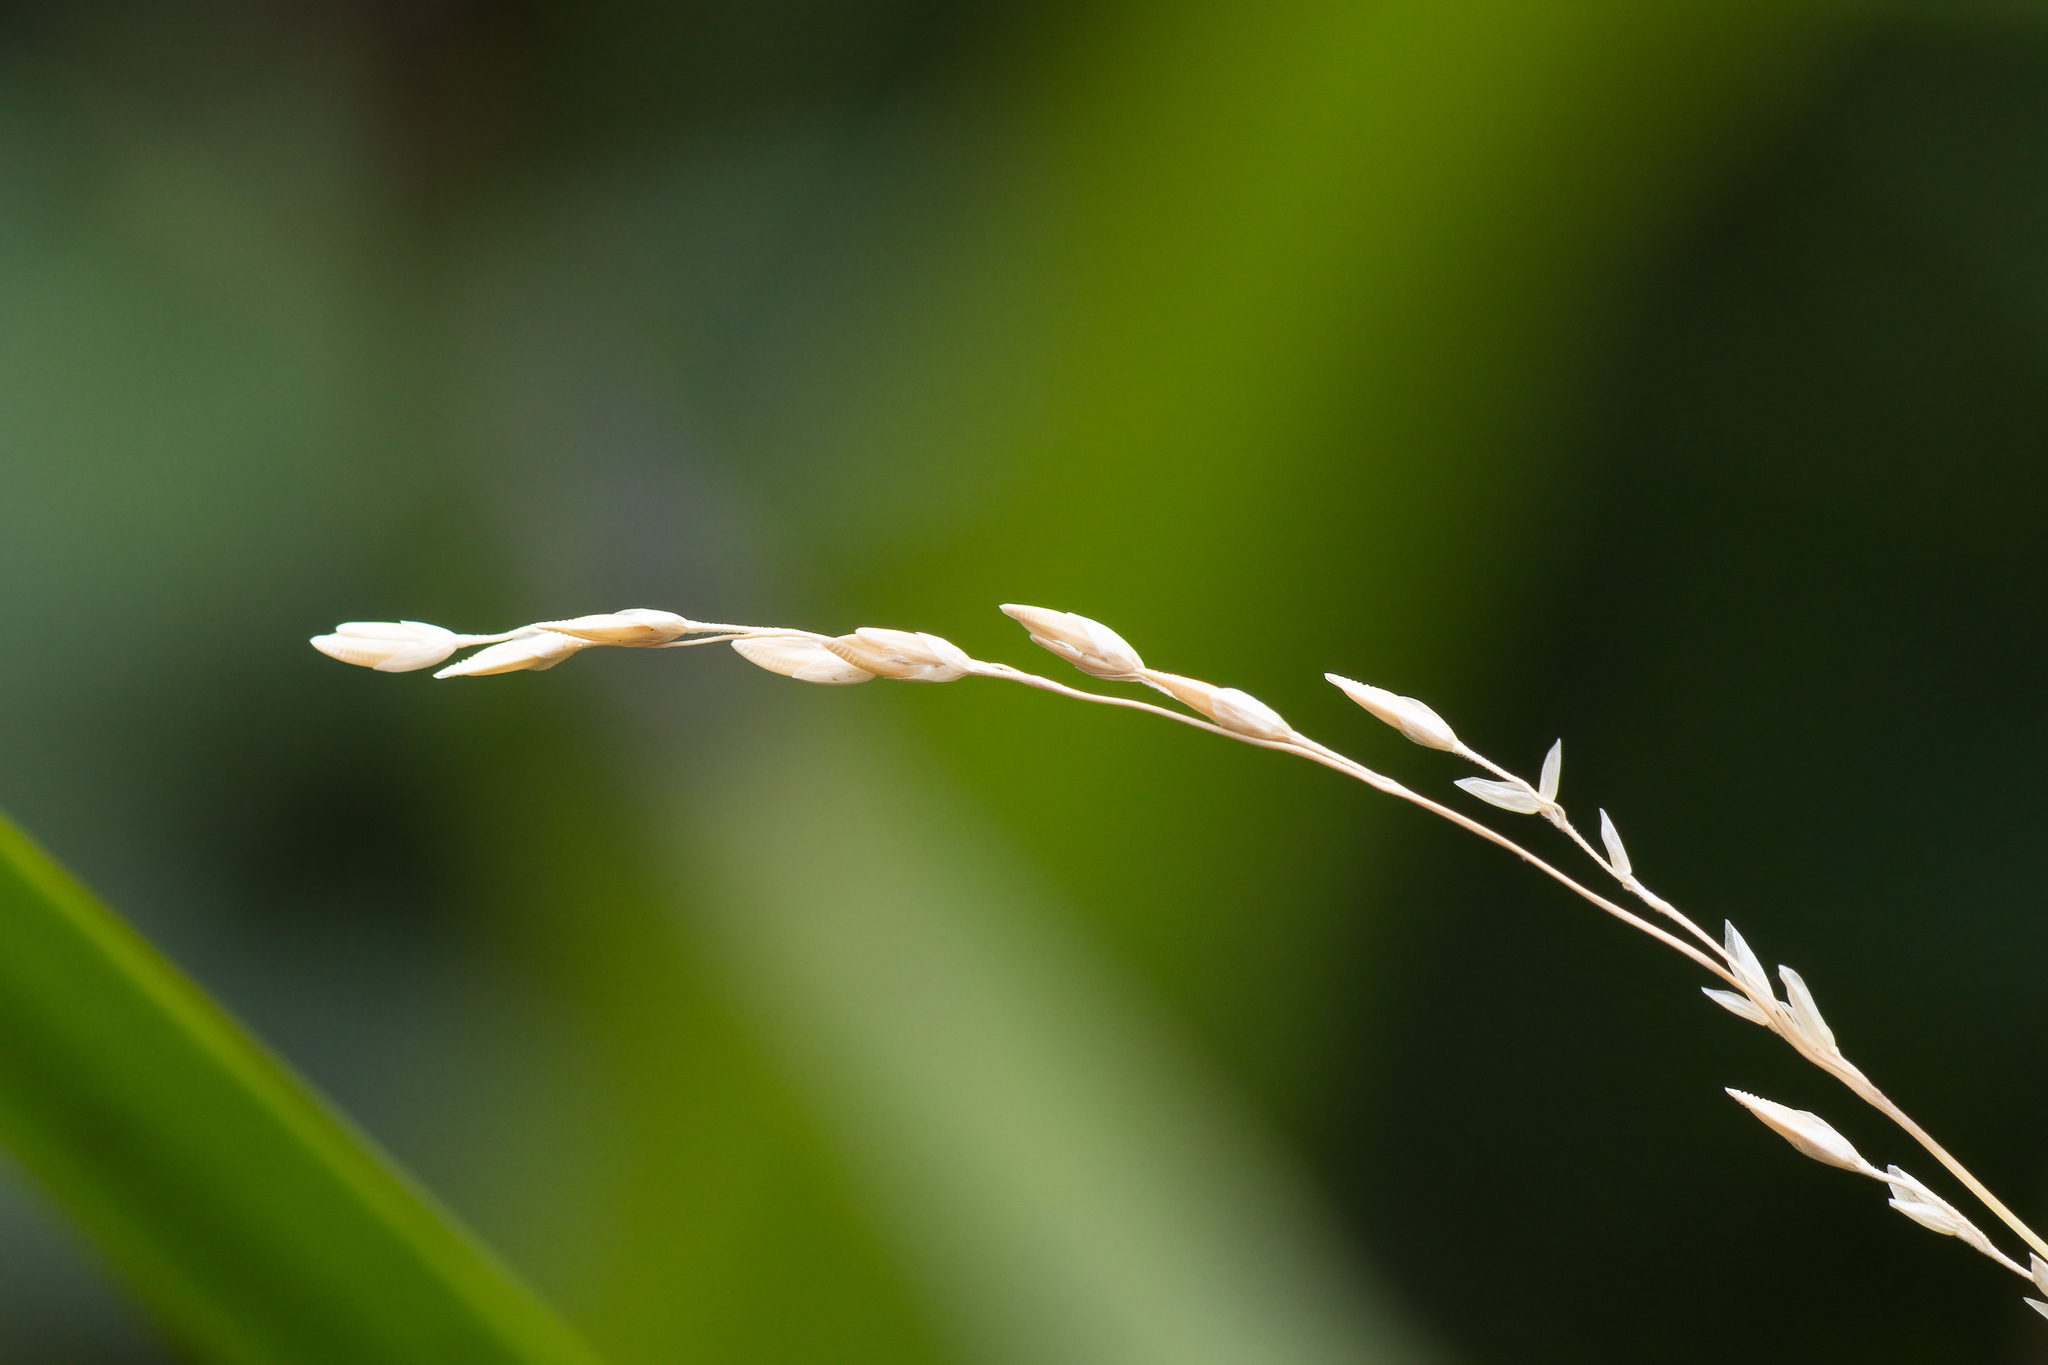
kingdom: Plantae
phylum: Tracheophyta
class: Liliopsida
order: Poales
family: Poaceae
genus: Ehrharta
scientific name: Ehrharta erecta
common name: Panic veldtgrass
